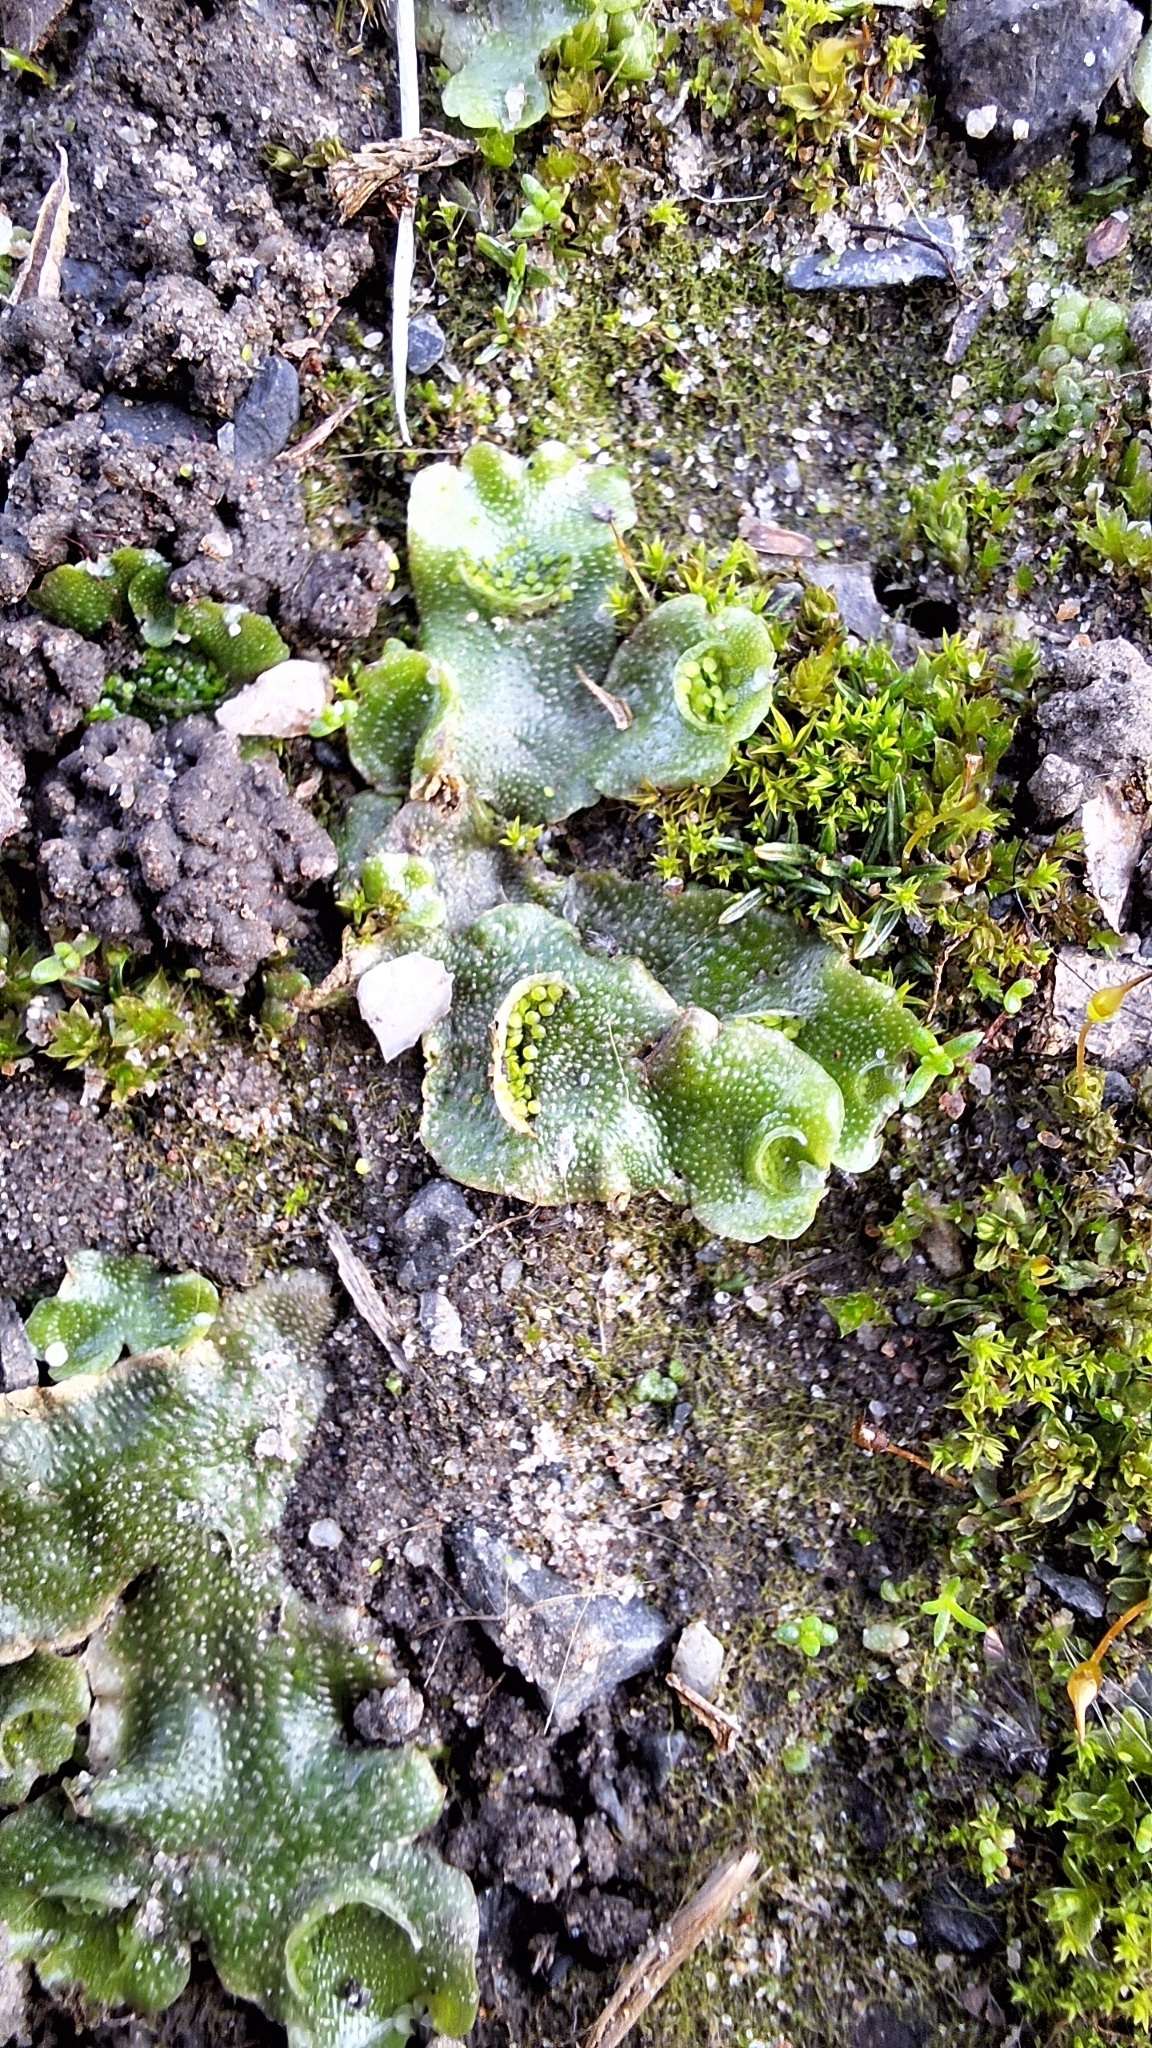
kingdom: Plantae
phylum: Marchantiophyta
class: Marchantiopsida
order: Lunulariales
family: Lunulariaceae
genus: Lunularia
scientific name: Lunularia cruciata
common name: Crescent-cup liverwort
